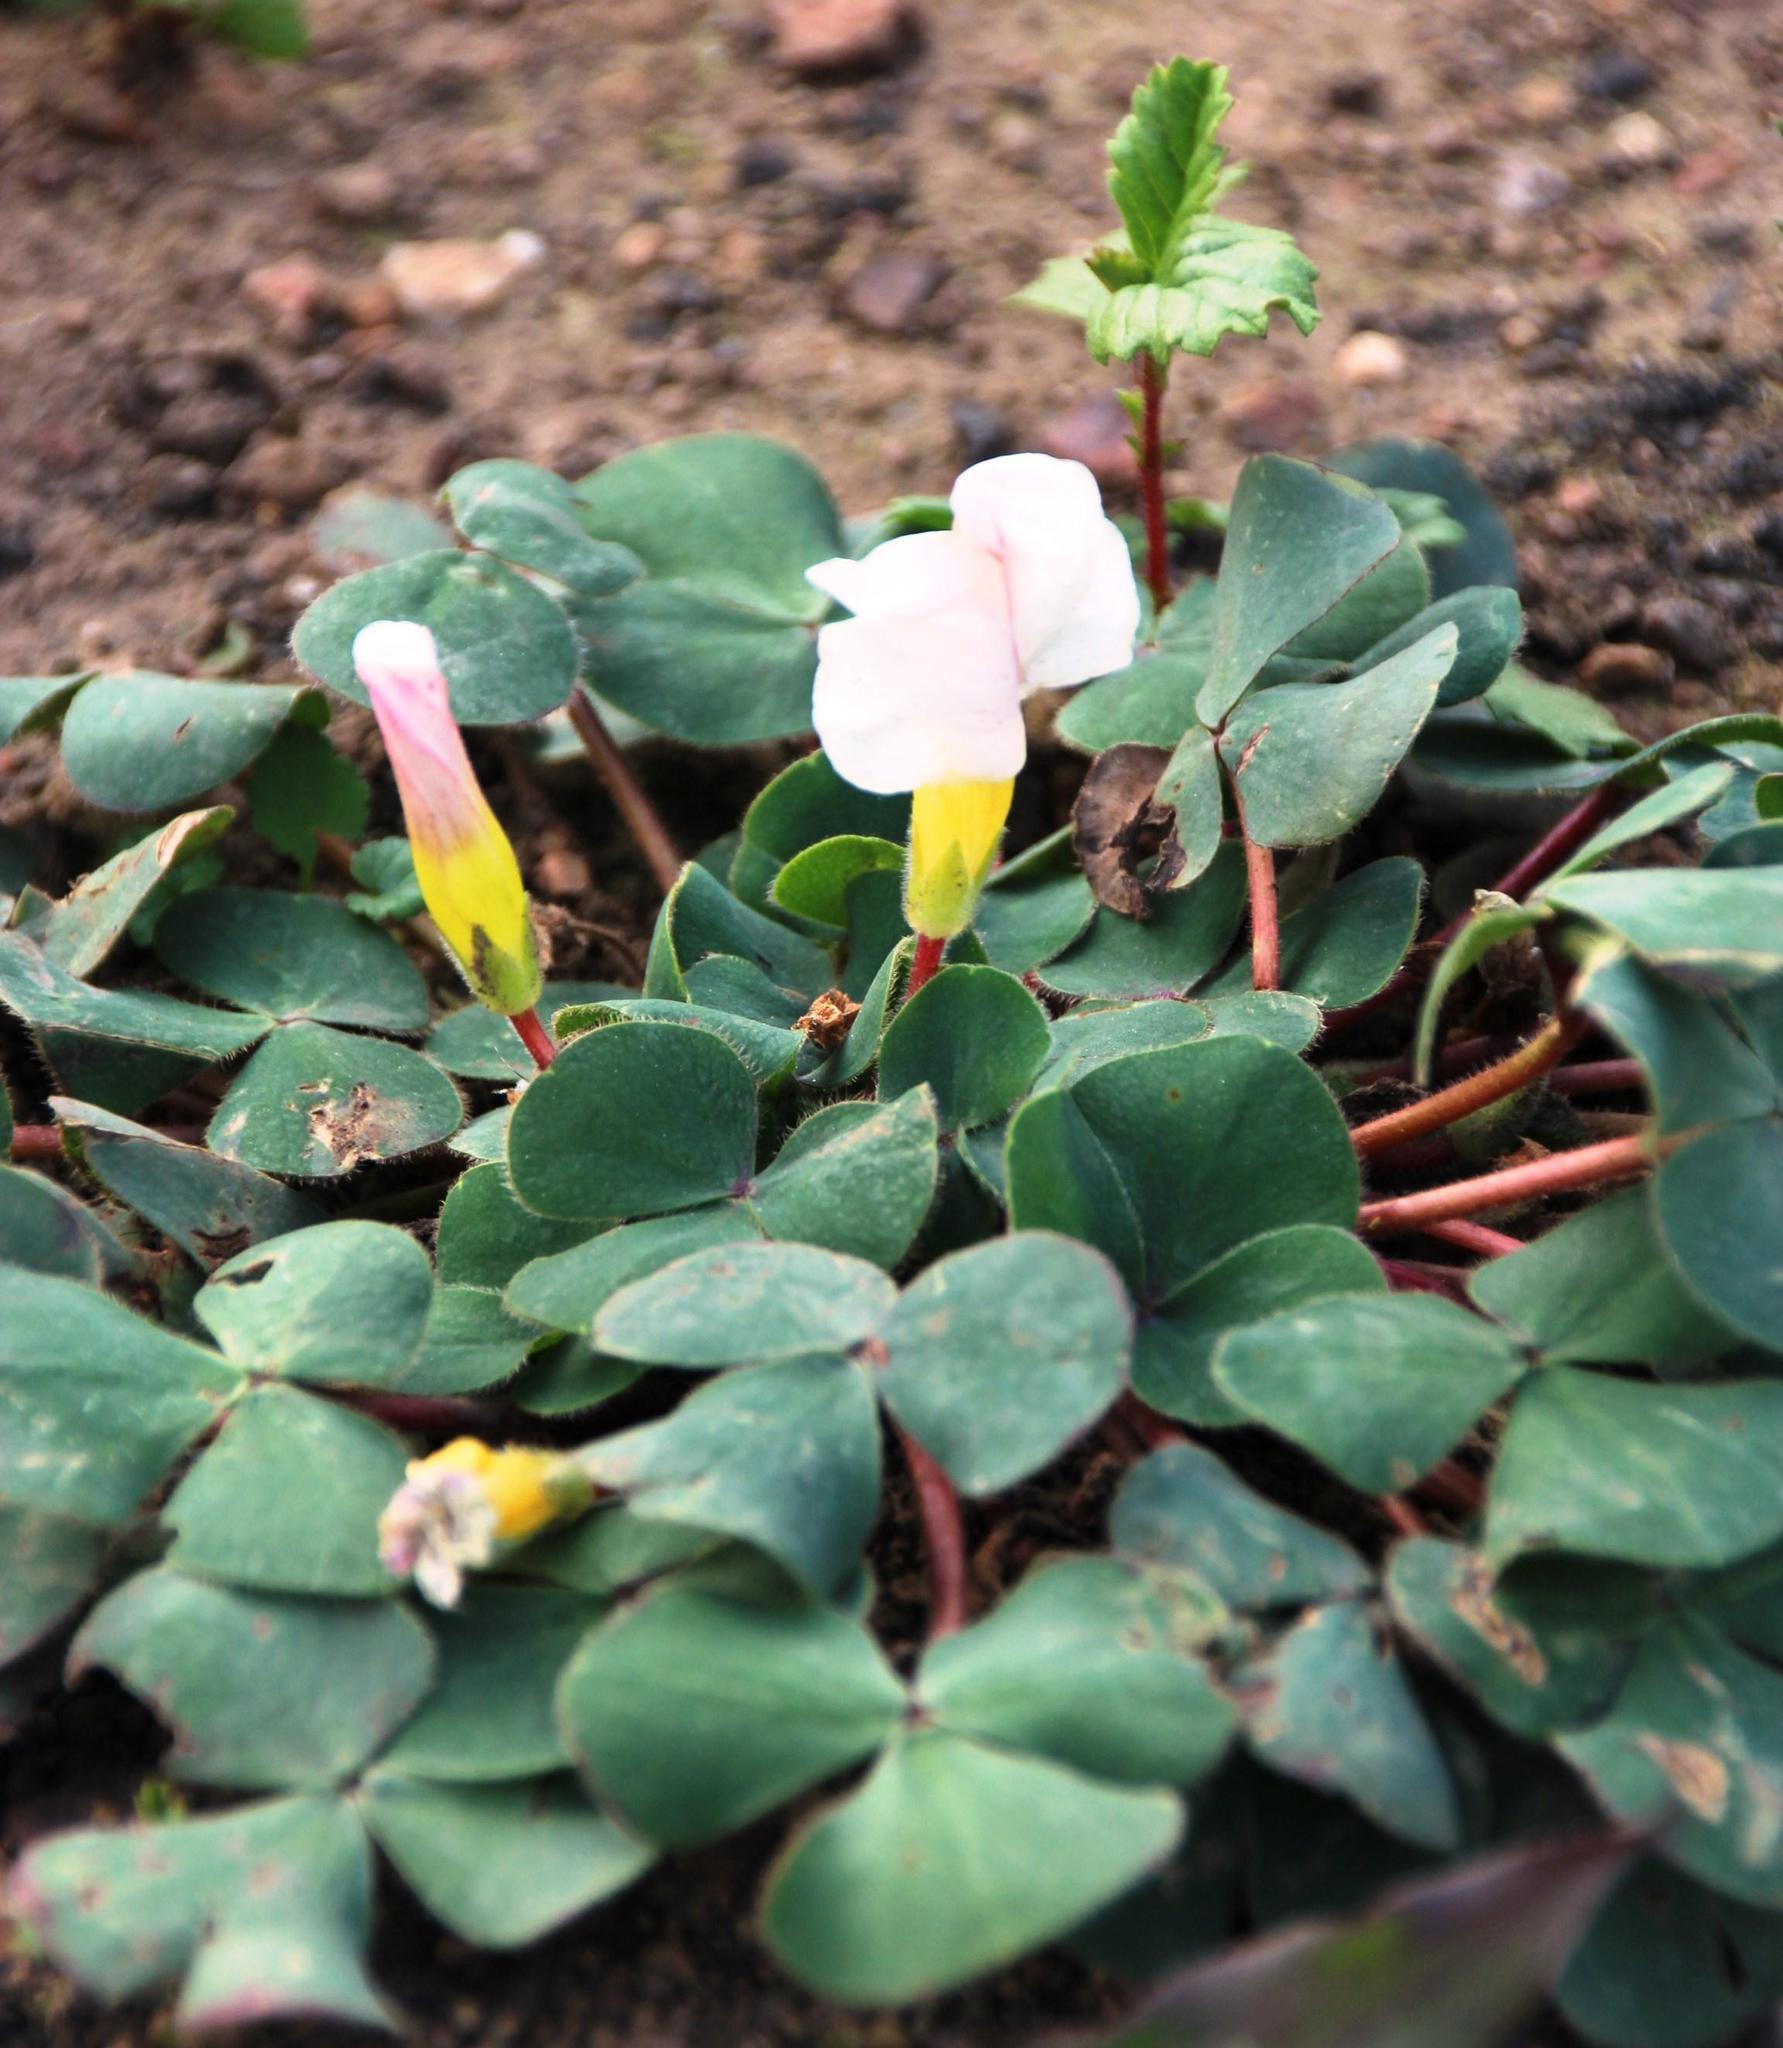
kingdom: Plantae
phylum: Tracheophyta
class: Magnoliopsida
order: Oxalidales
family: Oxalidaceae
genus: Oxalis
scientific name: Oxalis purpurea
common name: Purple woodsorrel
